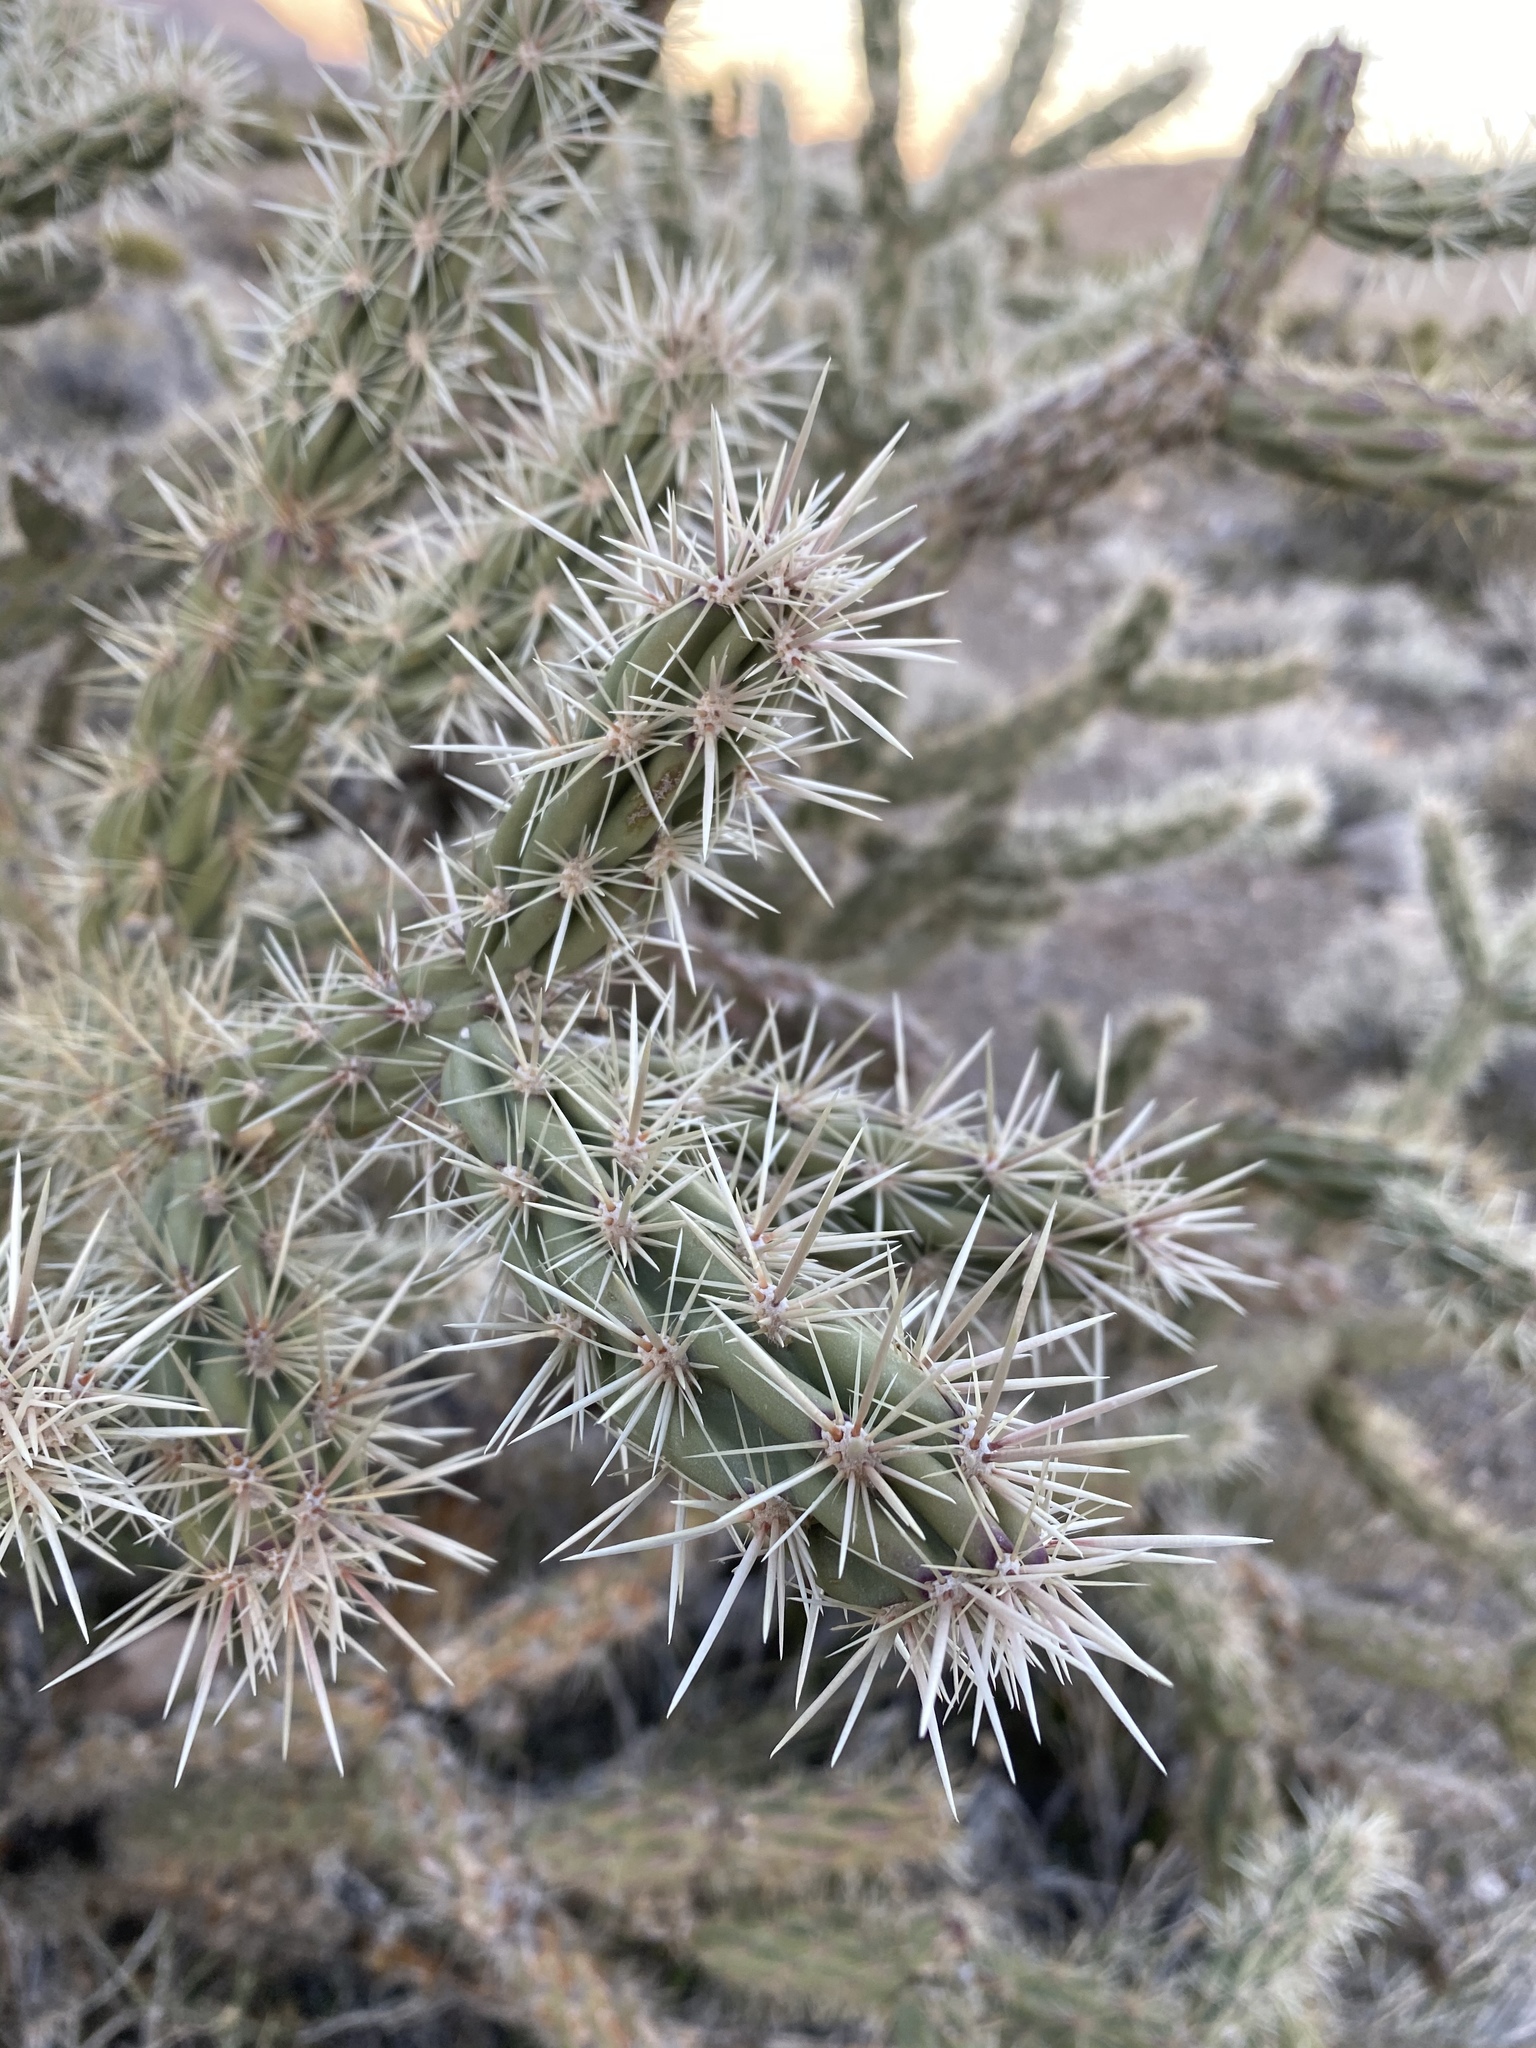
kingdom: Plantae
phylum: Tracheophyta
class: Magnoliopsida
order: Caryophyllales
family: Cactaceae
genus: Cylindropuntia
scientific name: Cylindropuntia acanthocarpa
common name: Buckhorn cholla
